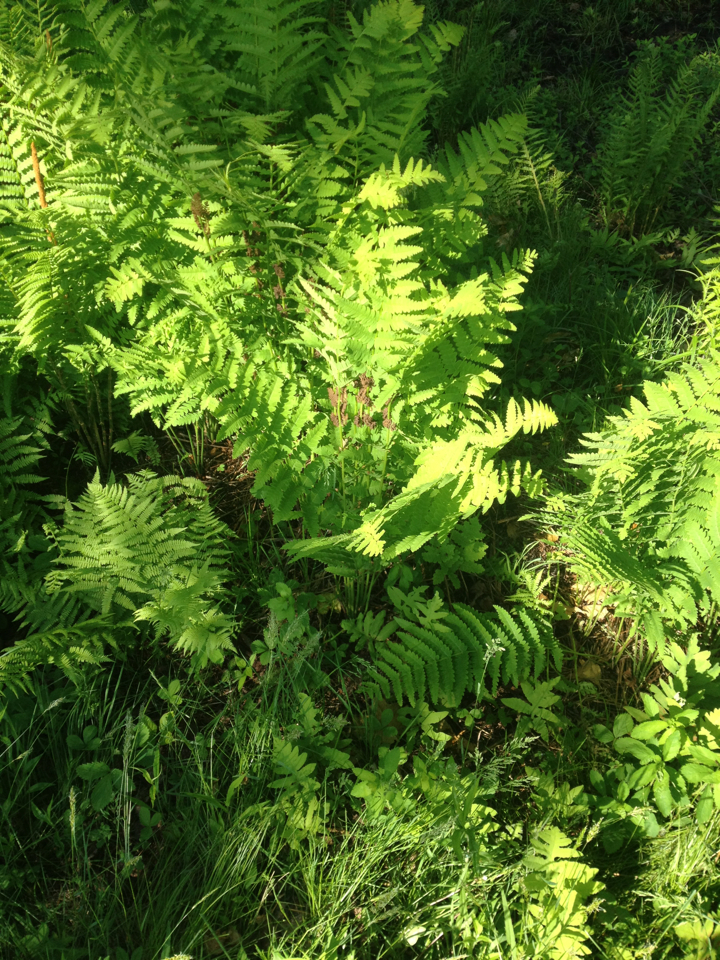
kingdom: Plantae
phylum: Tracheophyta
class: Polypodiopsida
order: Osmundales
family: Osmundaceae
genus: Claytosmunda
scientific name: Claytosmunda claytoniana
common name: Clayton's fern
